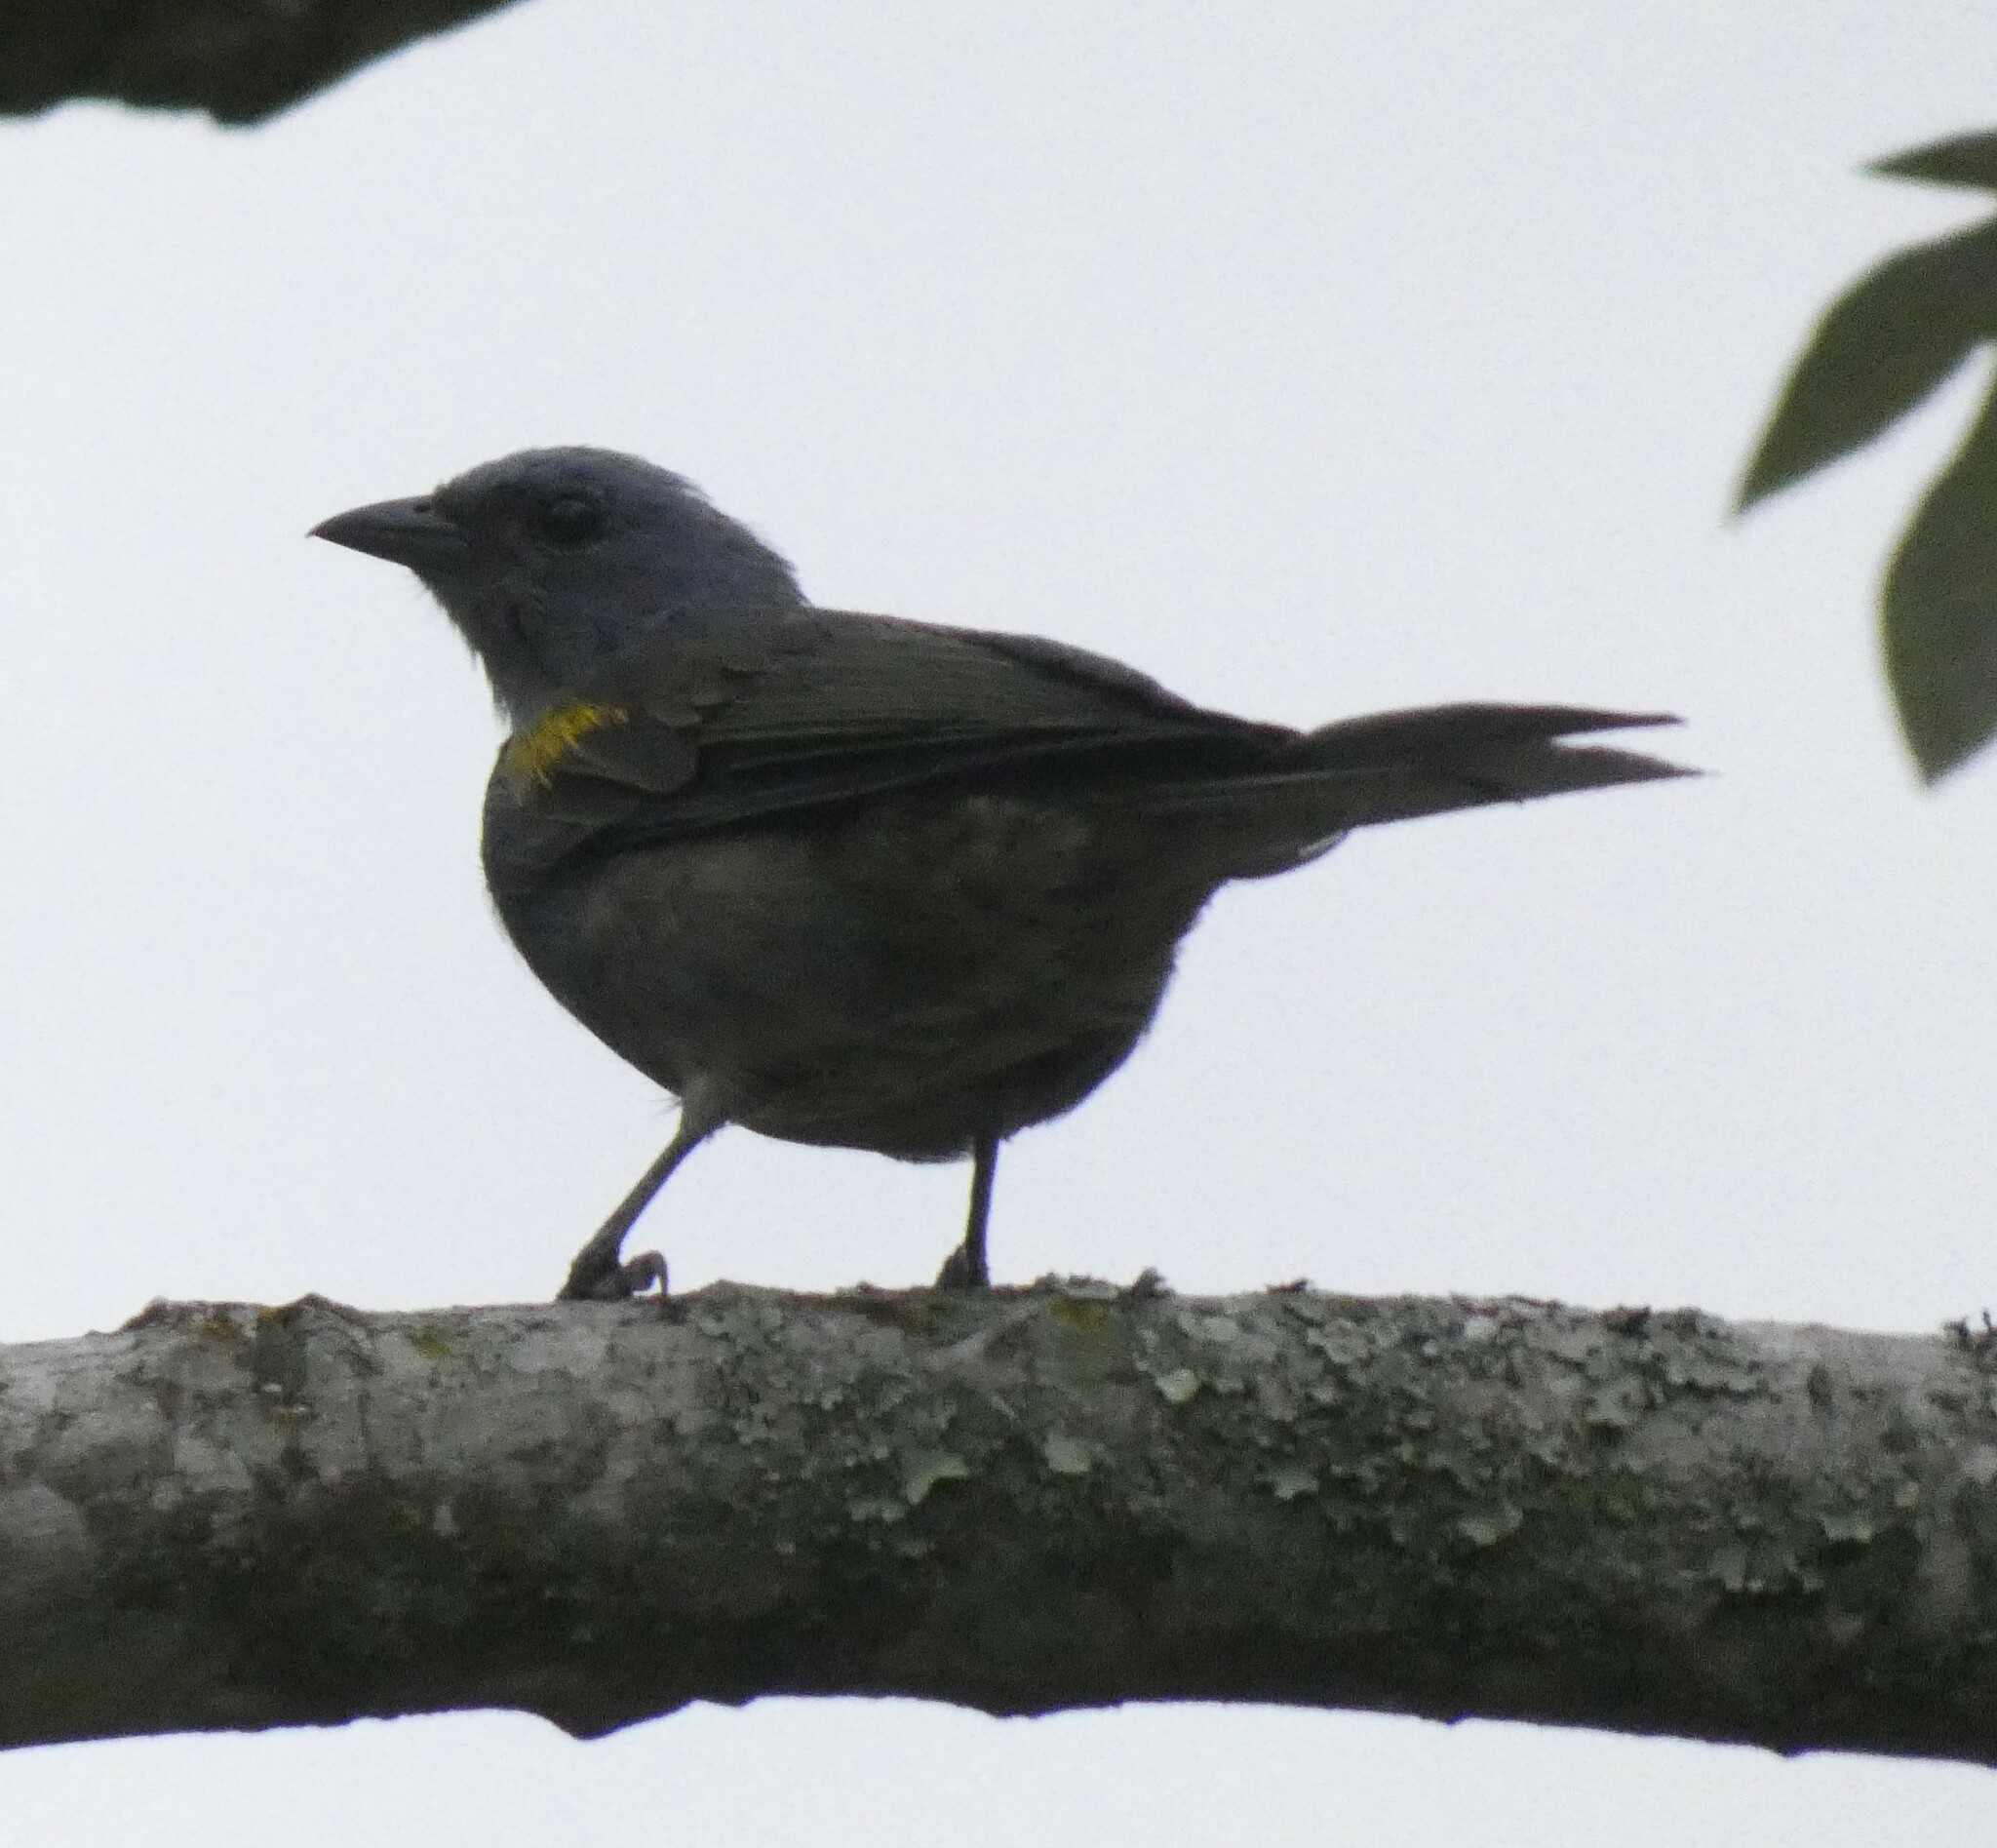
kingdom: Animalia
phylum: Chordata
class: Aves
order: Passeriformes
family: Thraupidae
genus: Thraupis
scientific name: Thraupis ornata
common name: Golden-chevroned tanager
